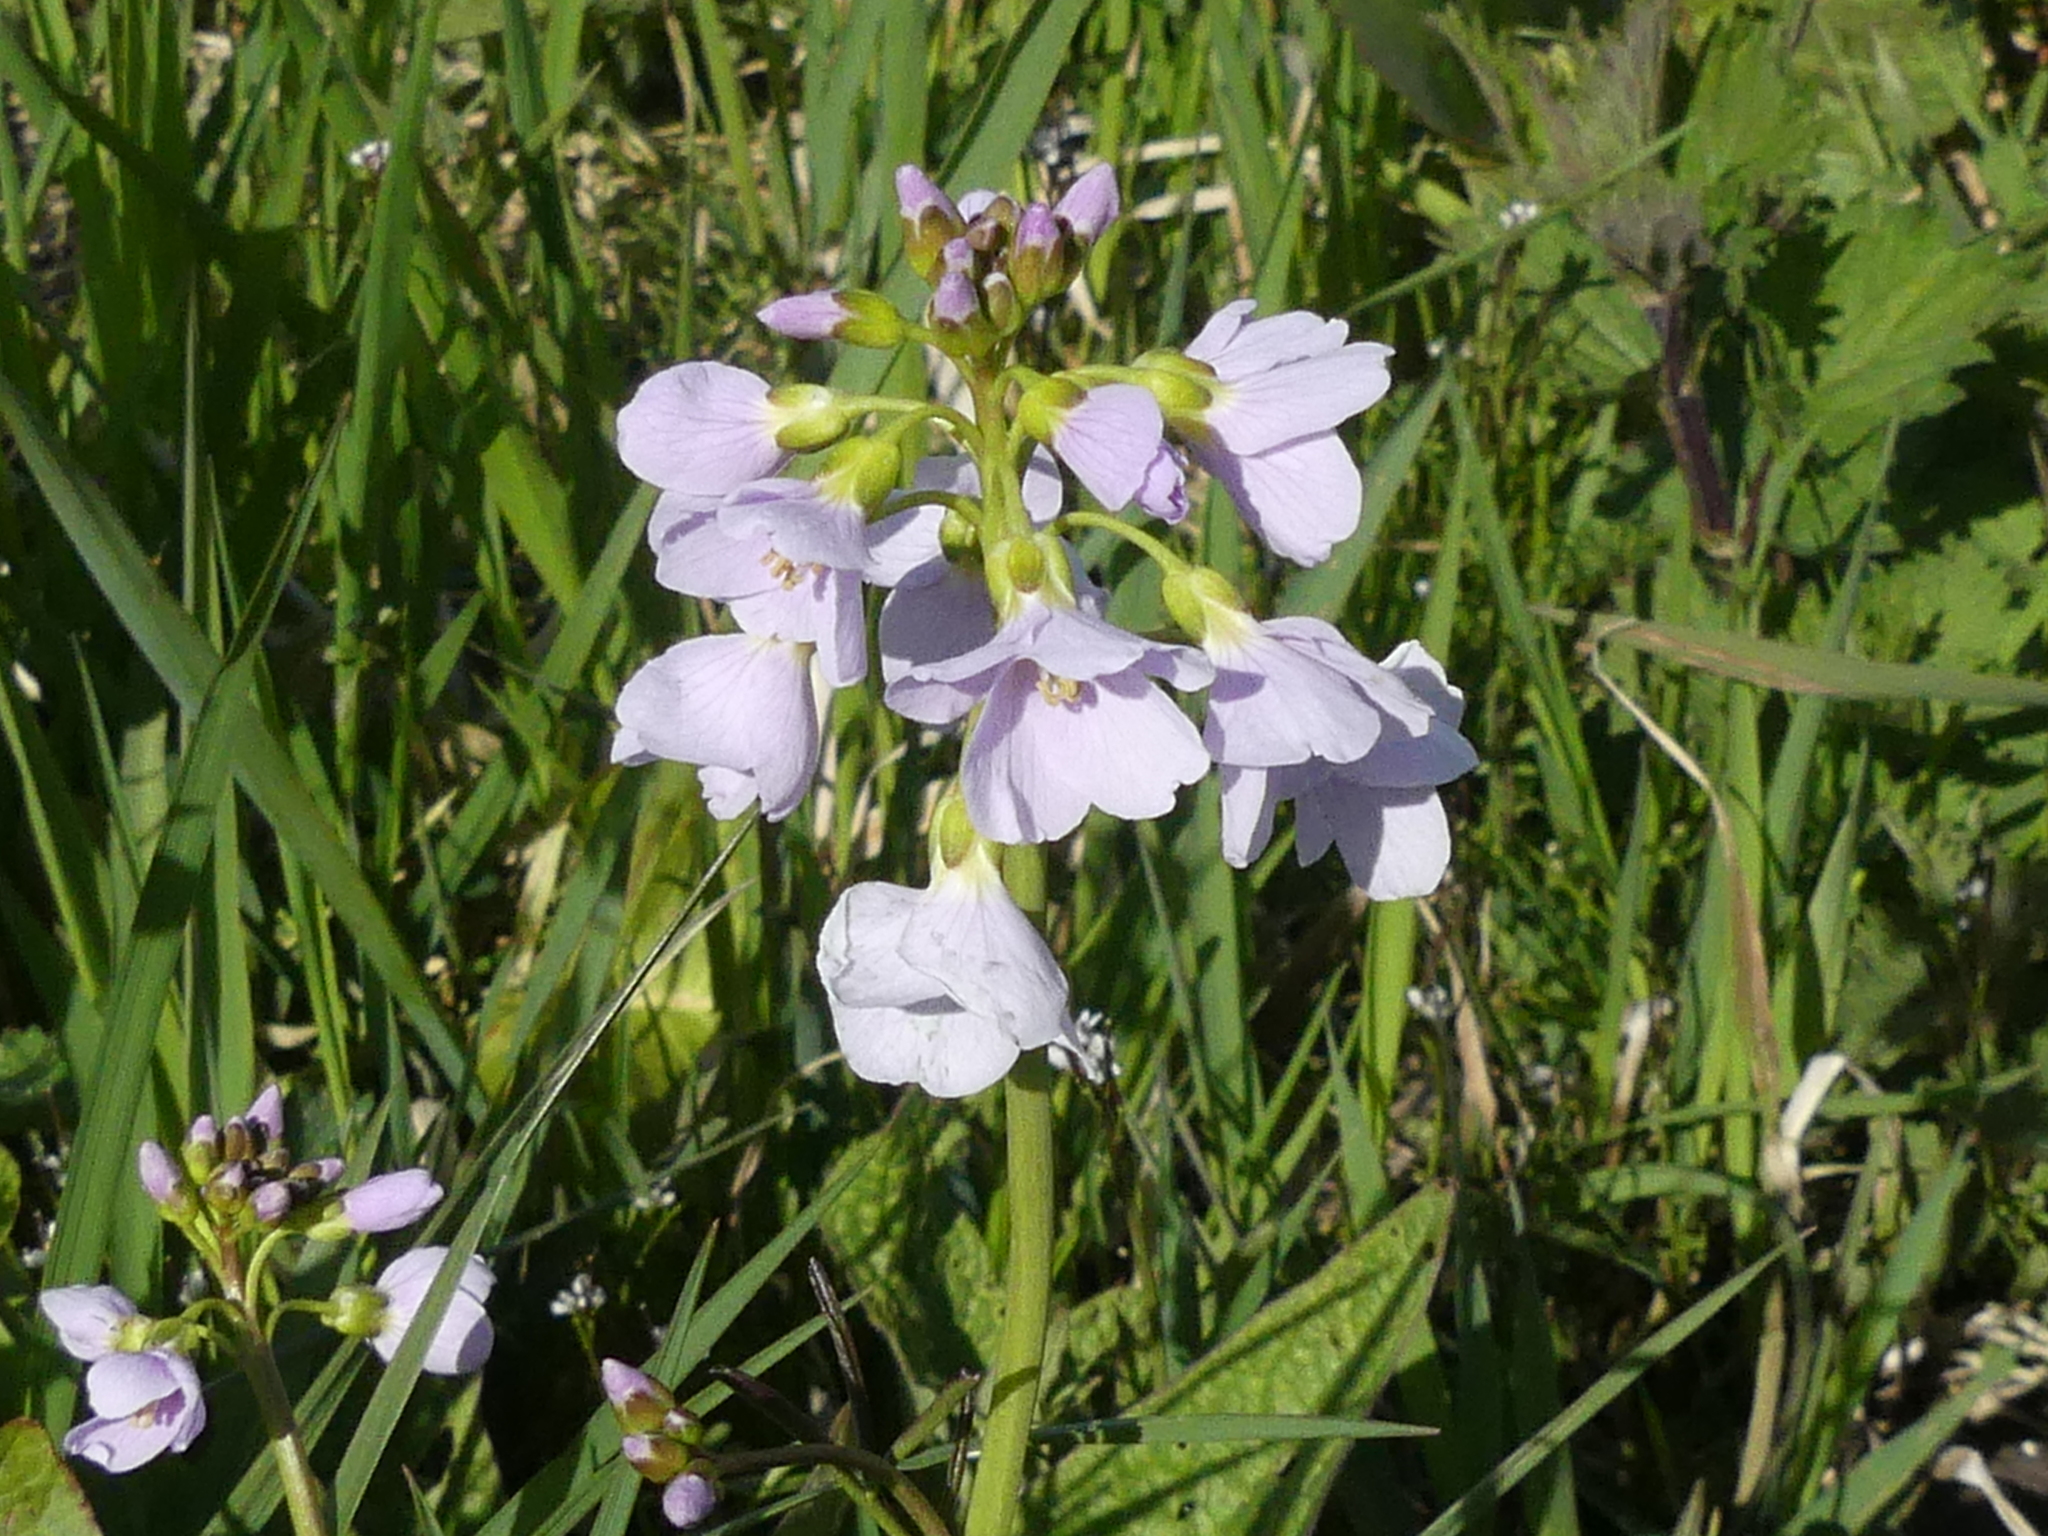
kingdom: Plantae
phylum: Tracheophyta
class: Magnoliopsida
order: Brassicales
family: Brassicaceae
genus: Cardamine
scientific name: Cardamine pratensis
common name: Cuckoo flower
